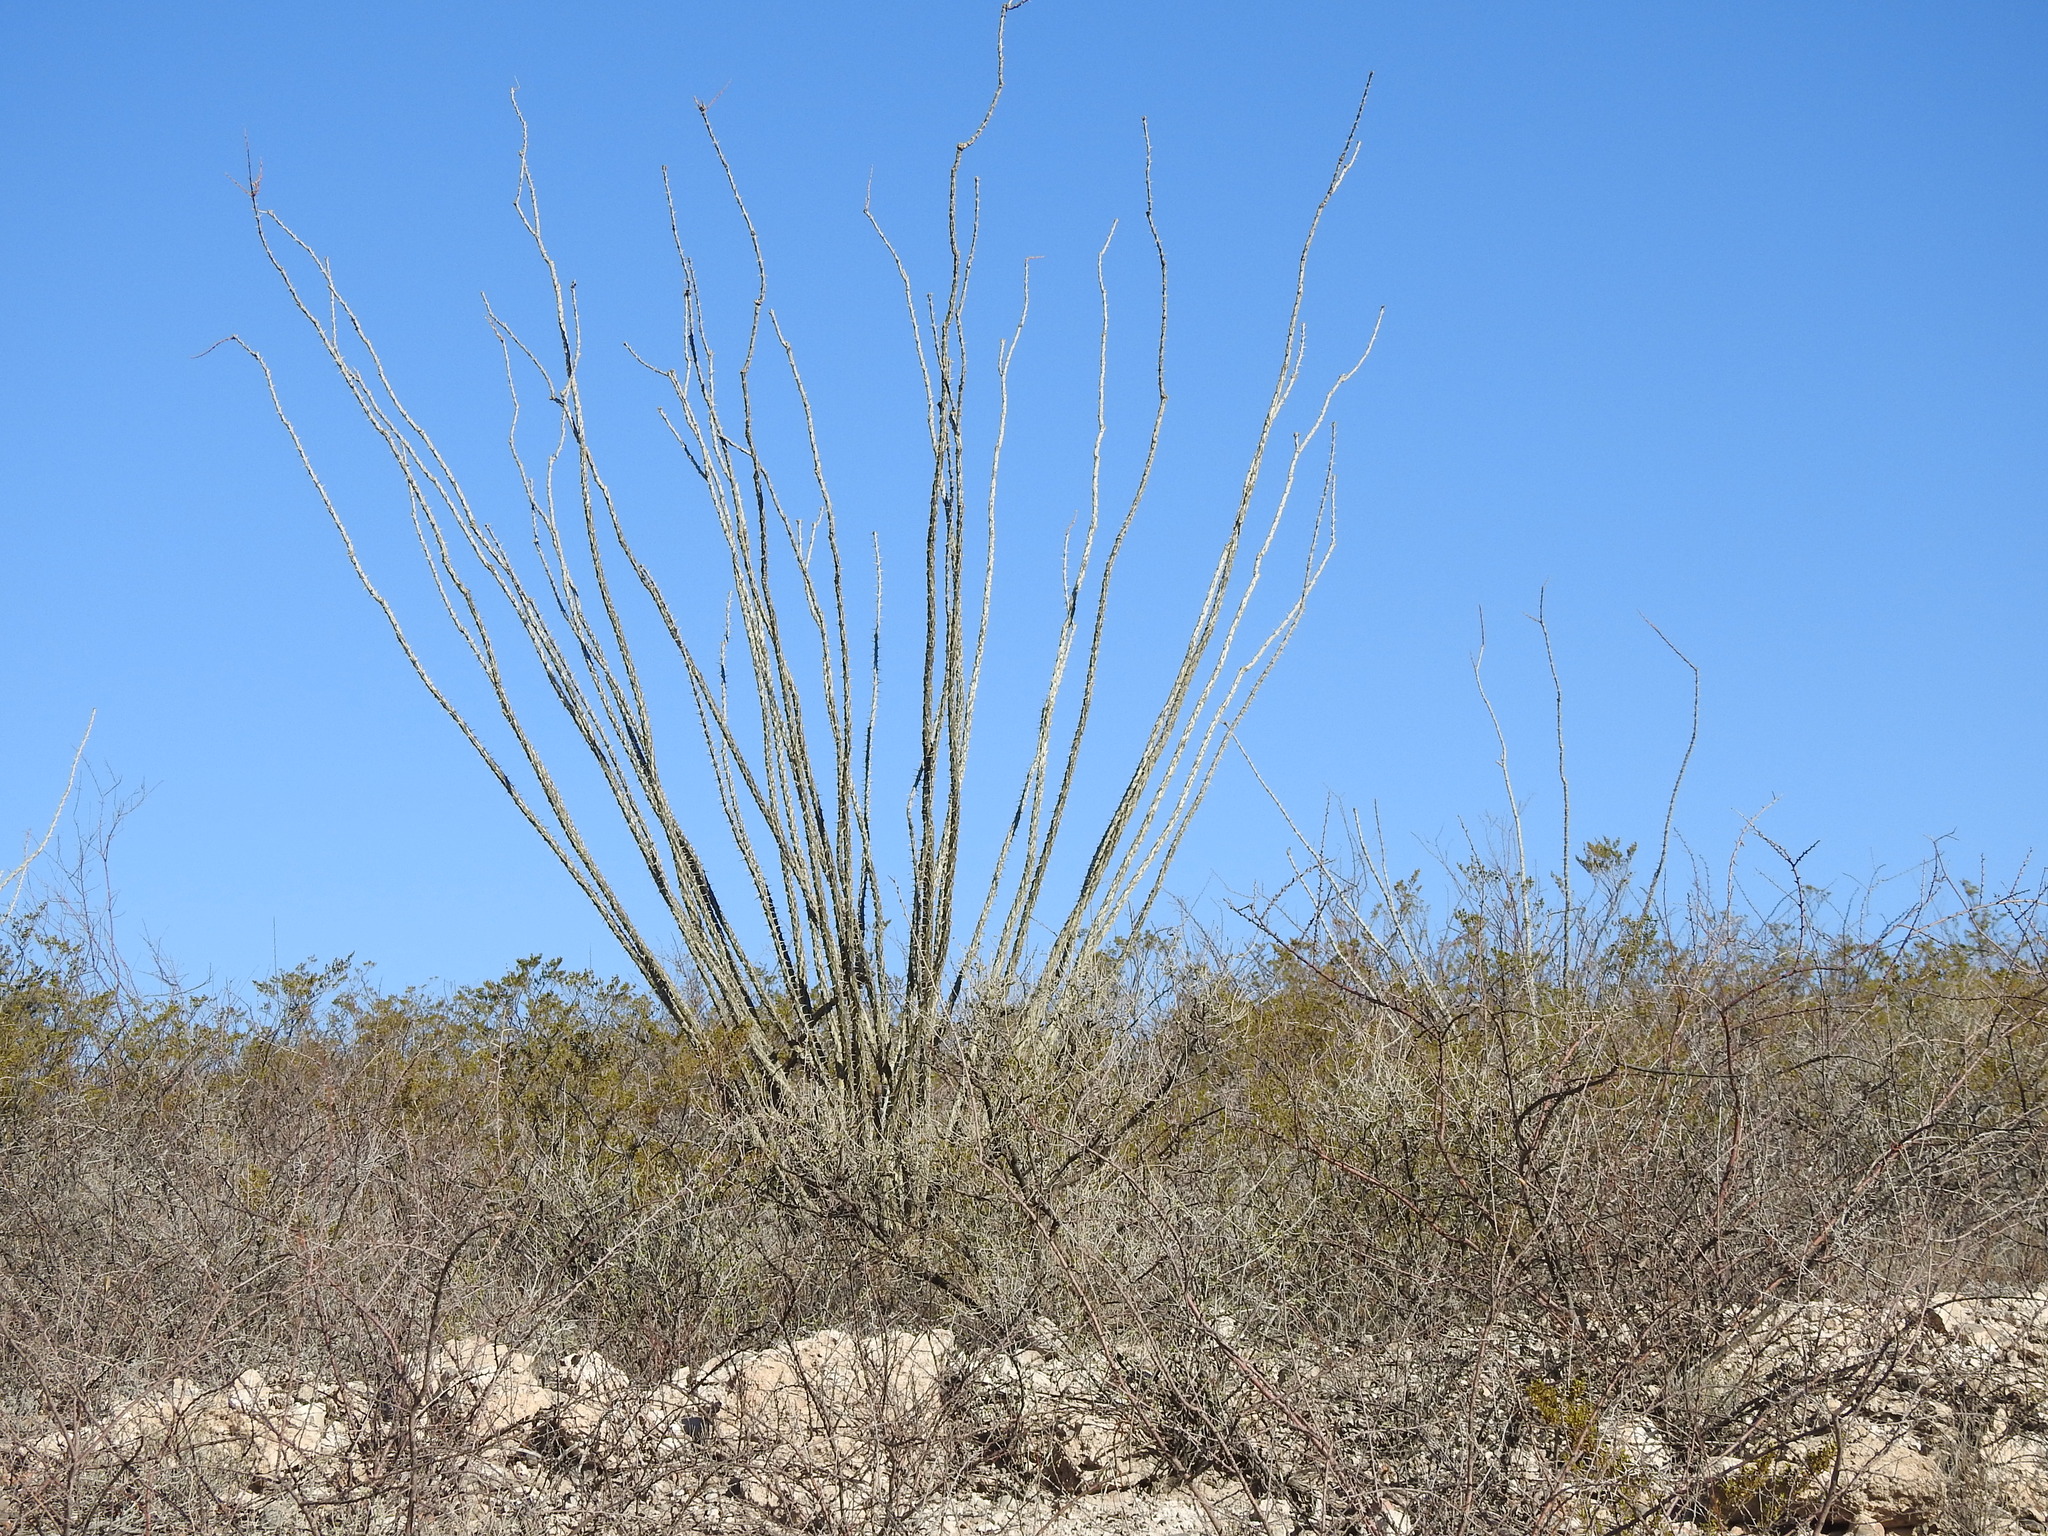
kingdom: Plantae
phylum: Tracheophyta
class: Magnoliopsida
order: Ericales
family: Fouquieriaceae
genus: Fouquieria
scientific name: Fouquieria splendens
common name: Vine-cactus
